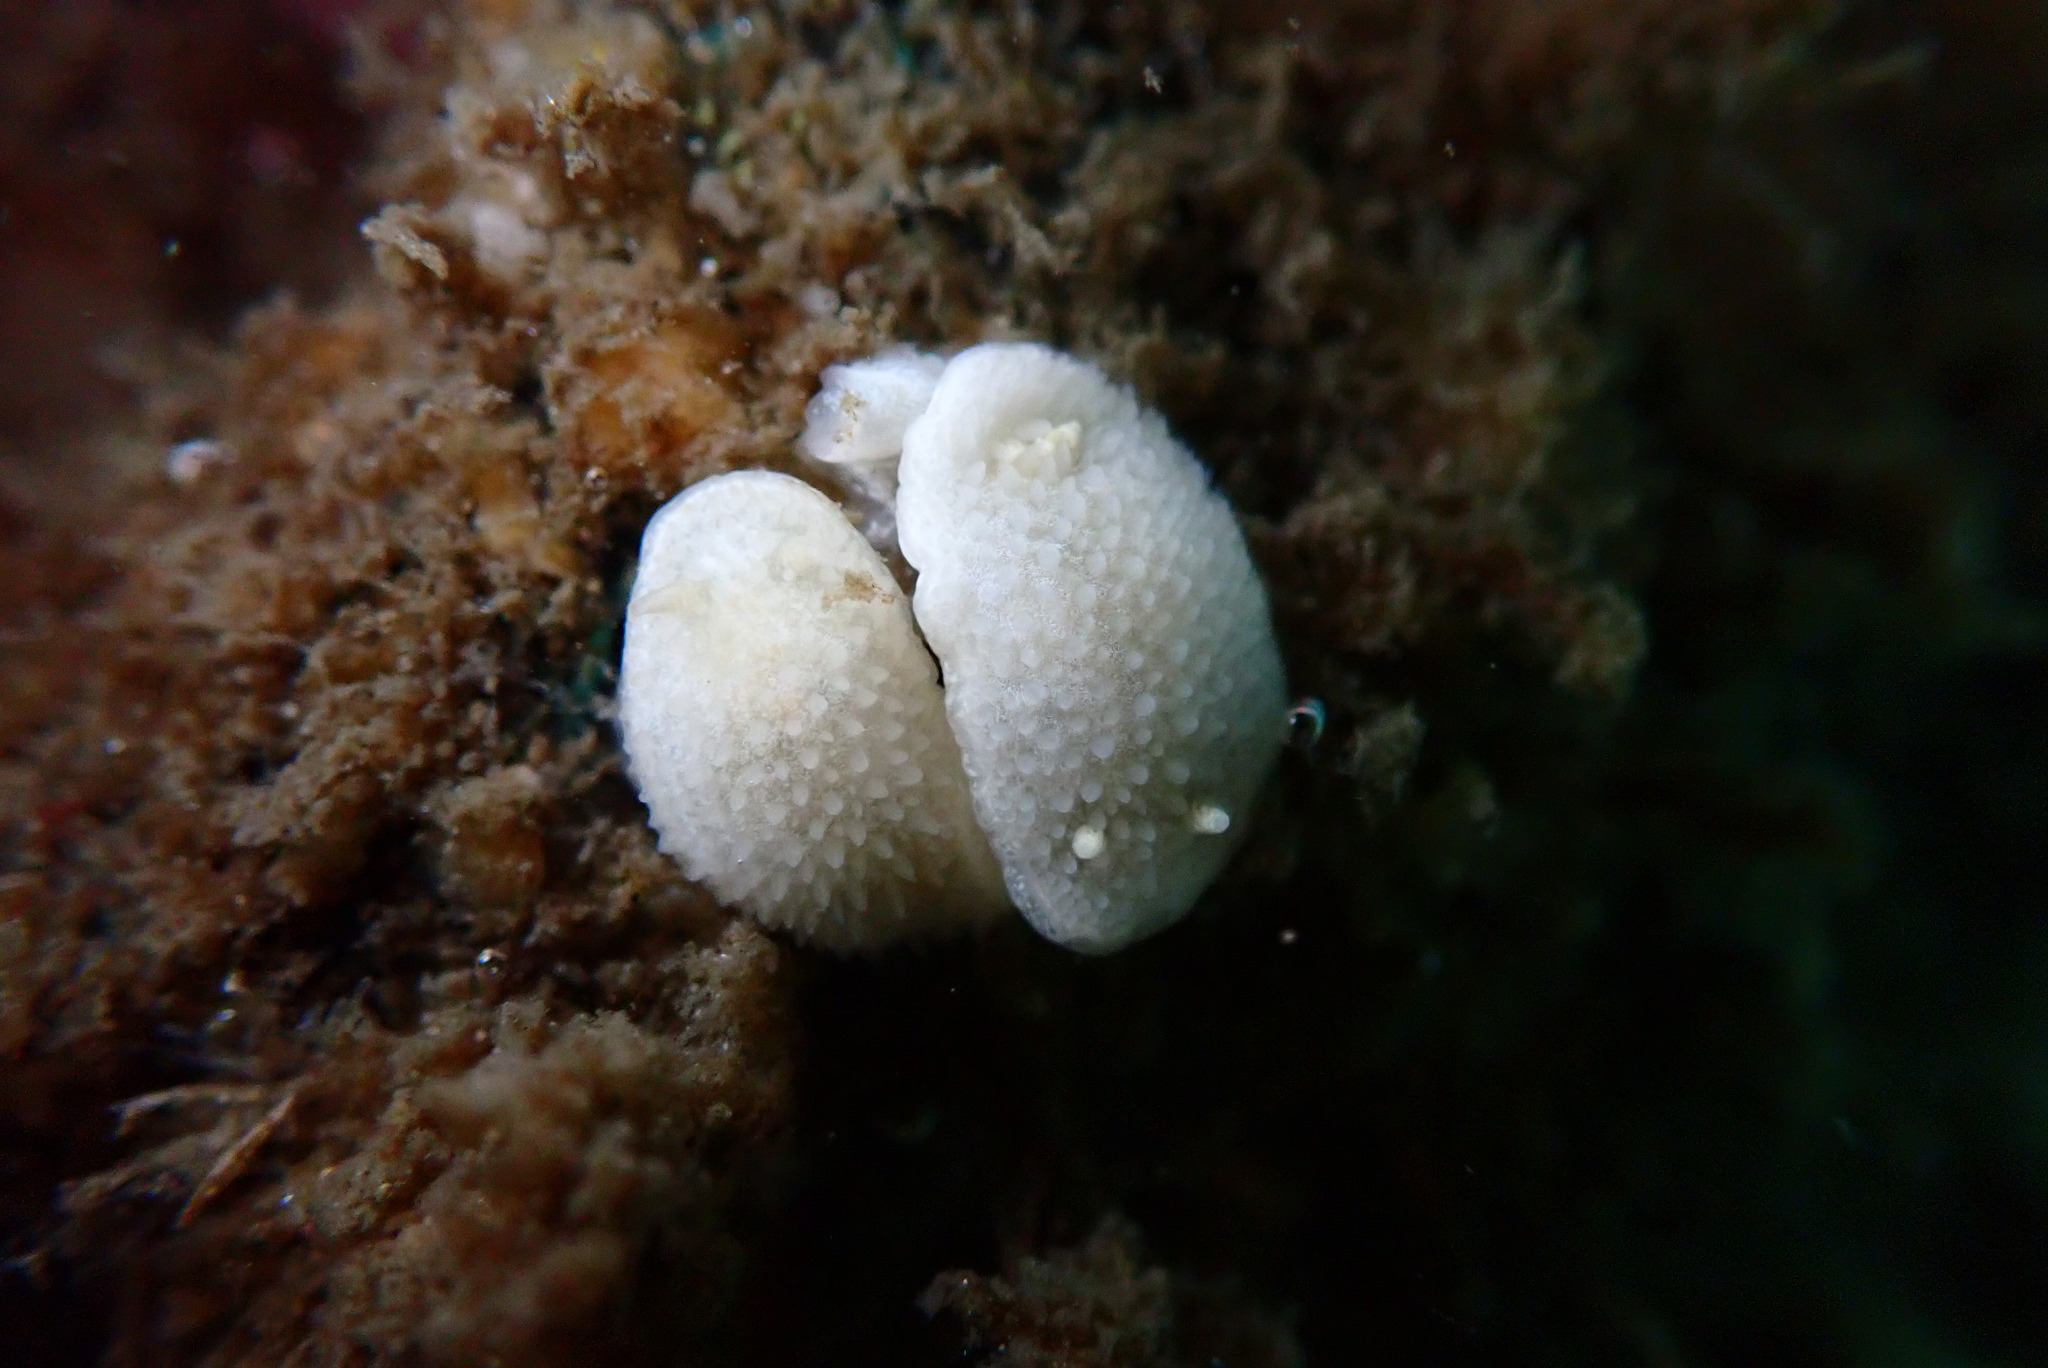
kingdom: Animalia
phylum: Mollusca
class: Gastropoda
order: Nudibranchia
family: Calycidorididae
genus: Diaphorodoris
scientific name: Diaphorodoris lirulatocauda
